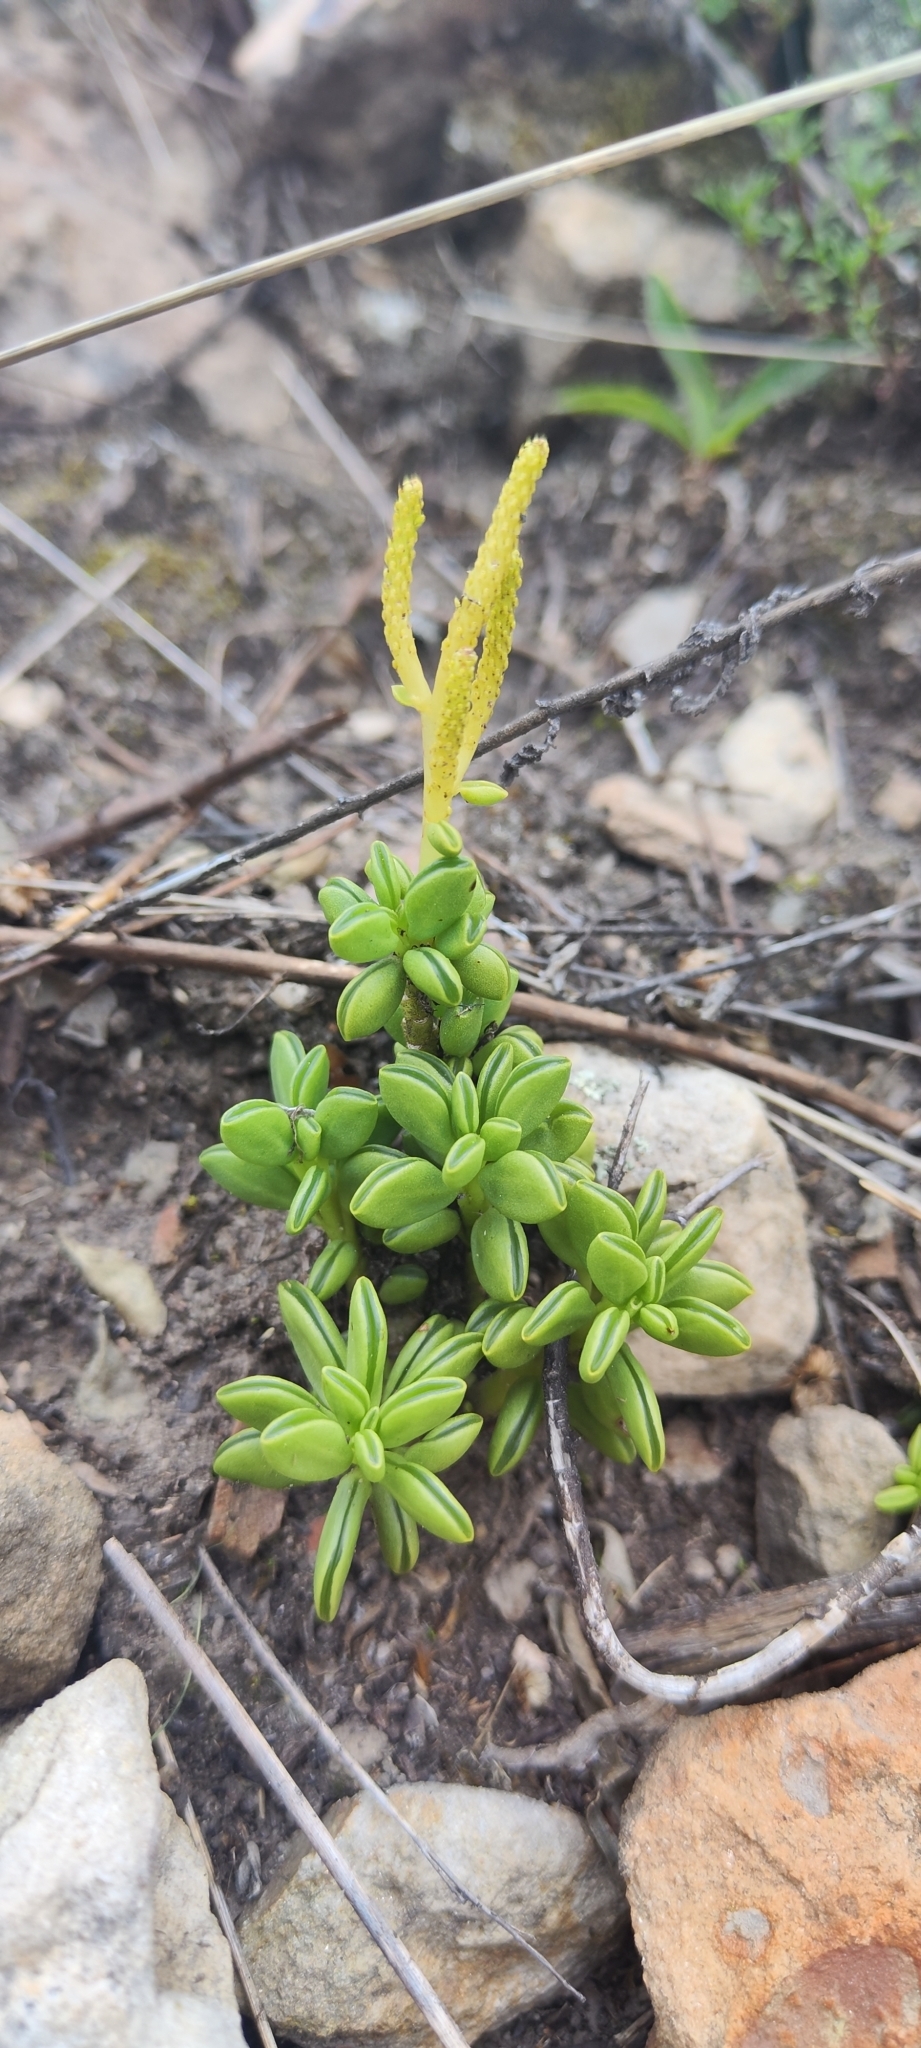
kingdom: Plantae
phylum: Tracheophyta
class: Magnoliopsida
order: Piperales
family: Piperaceae
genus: Peperomia
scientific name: Peperomia nivalis
